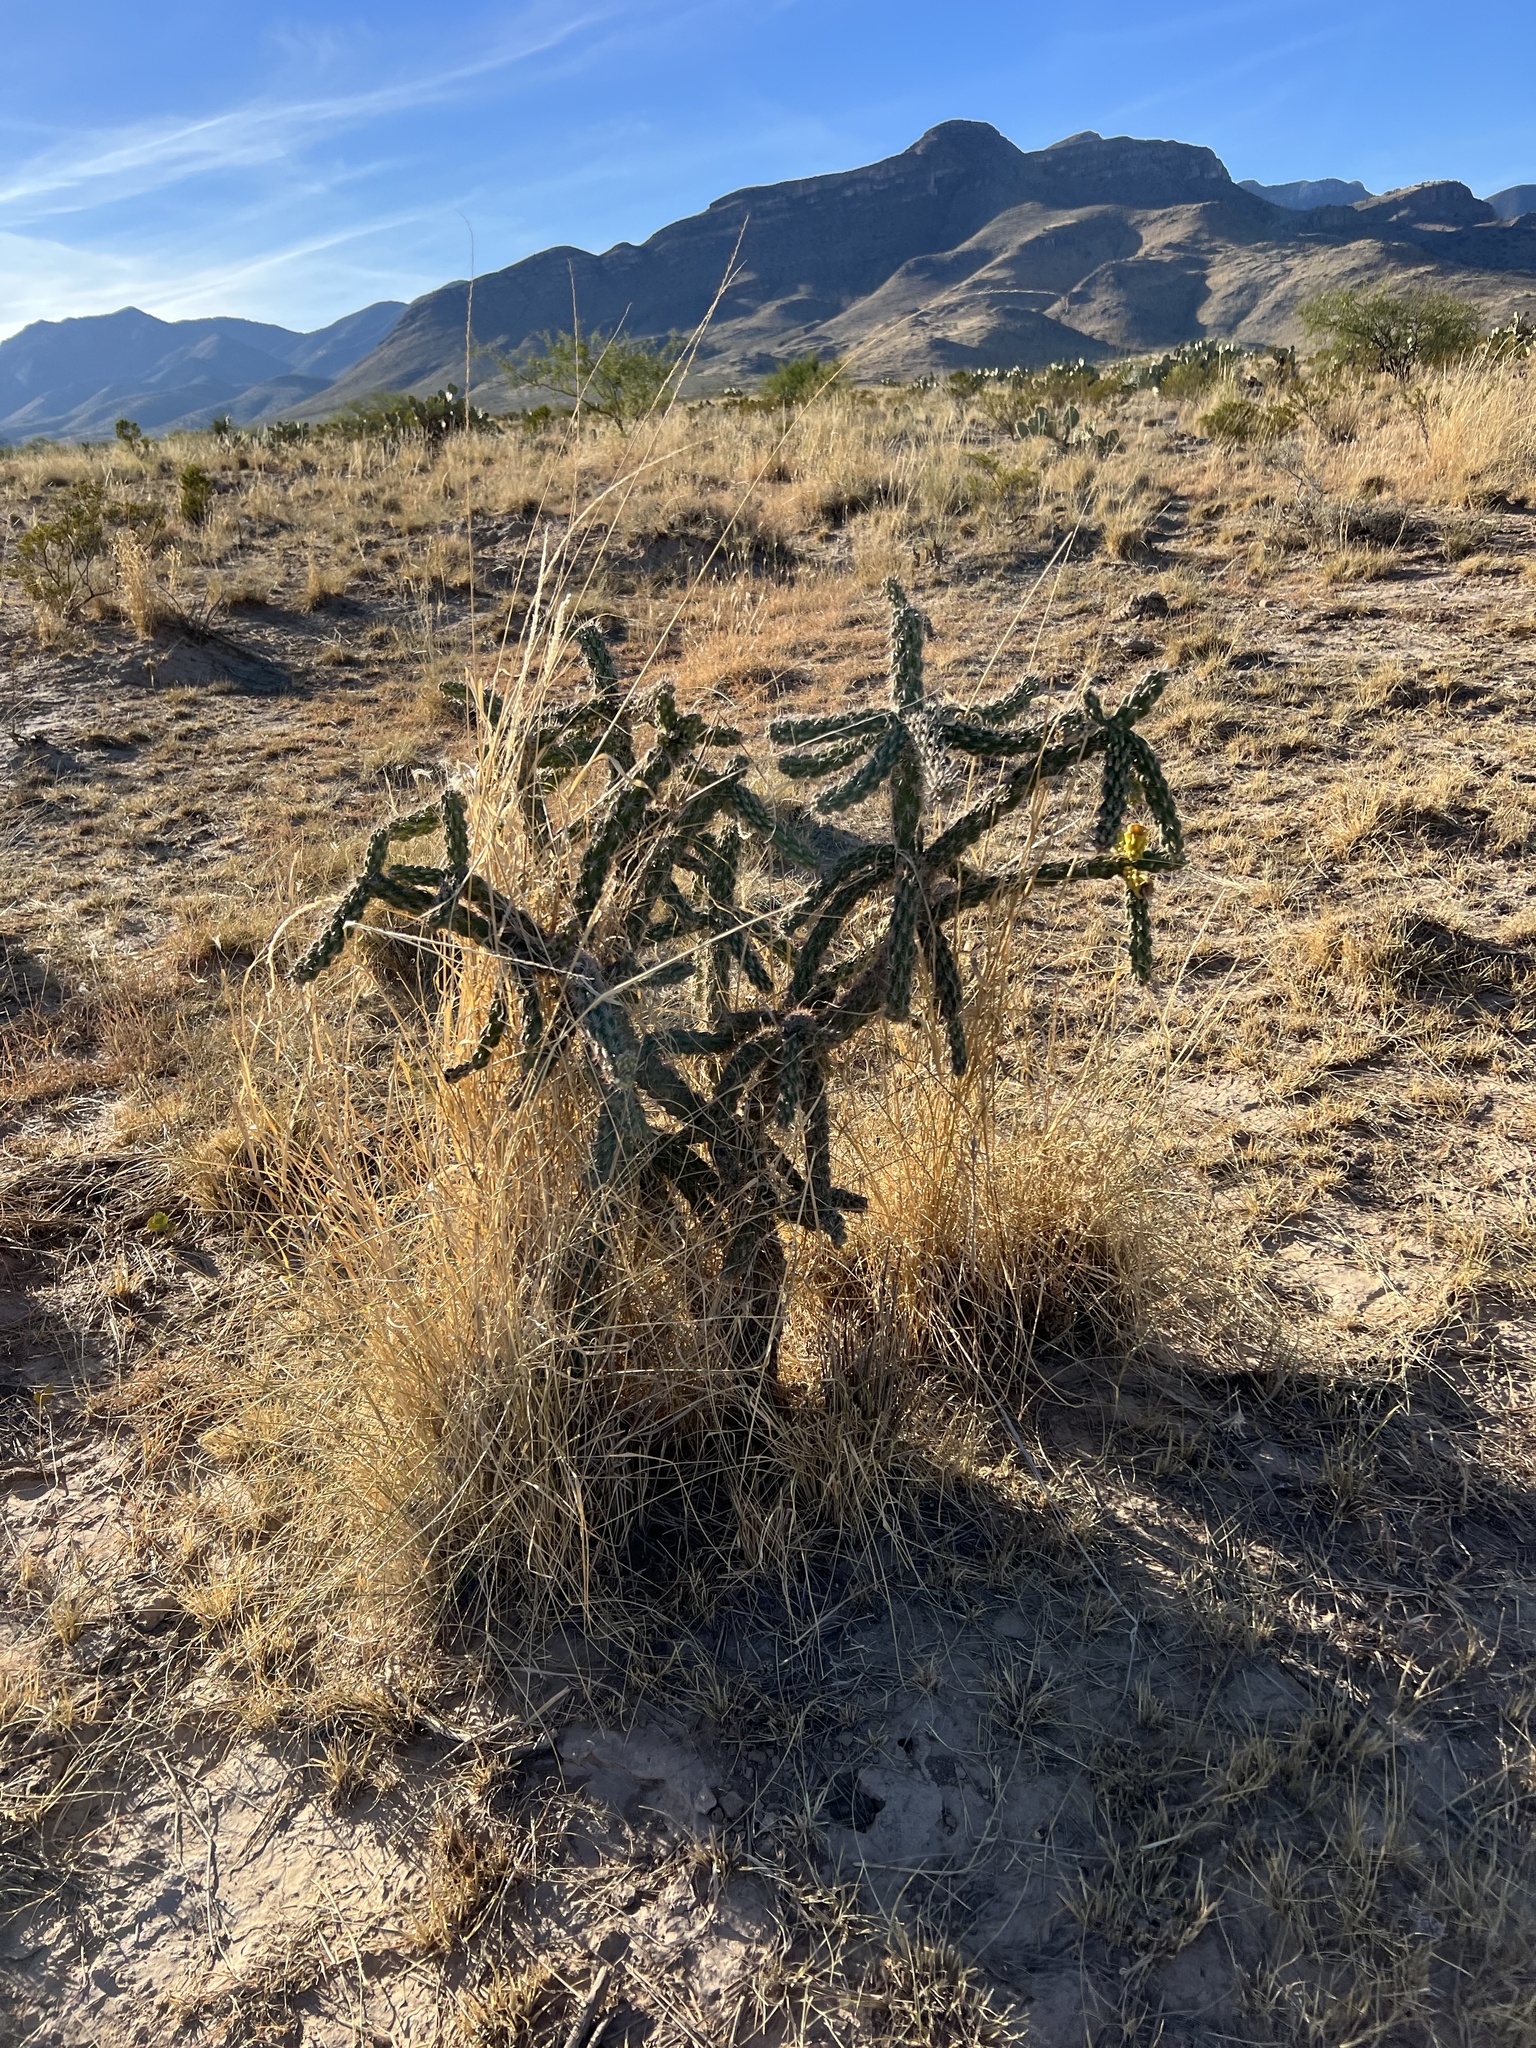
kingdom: Plantae
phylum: Tracheophyta
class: Magnoliopsida
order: Caryophyllales
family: Cactaceae
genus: Cylindropuntia
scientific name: Cylindropuntia imbricata
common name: Candelabrum cactus
